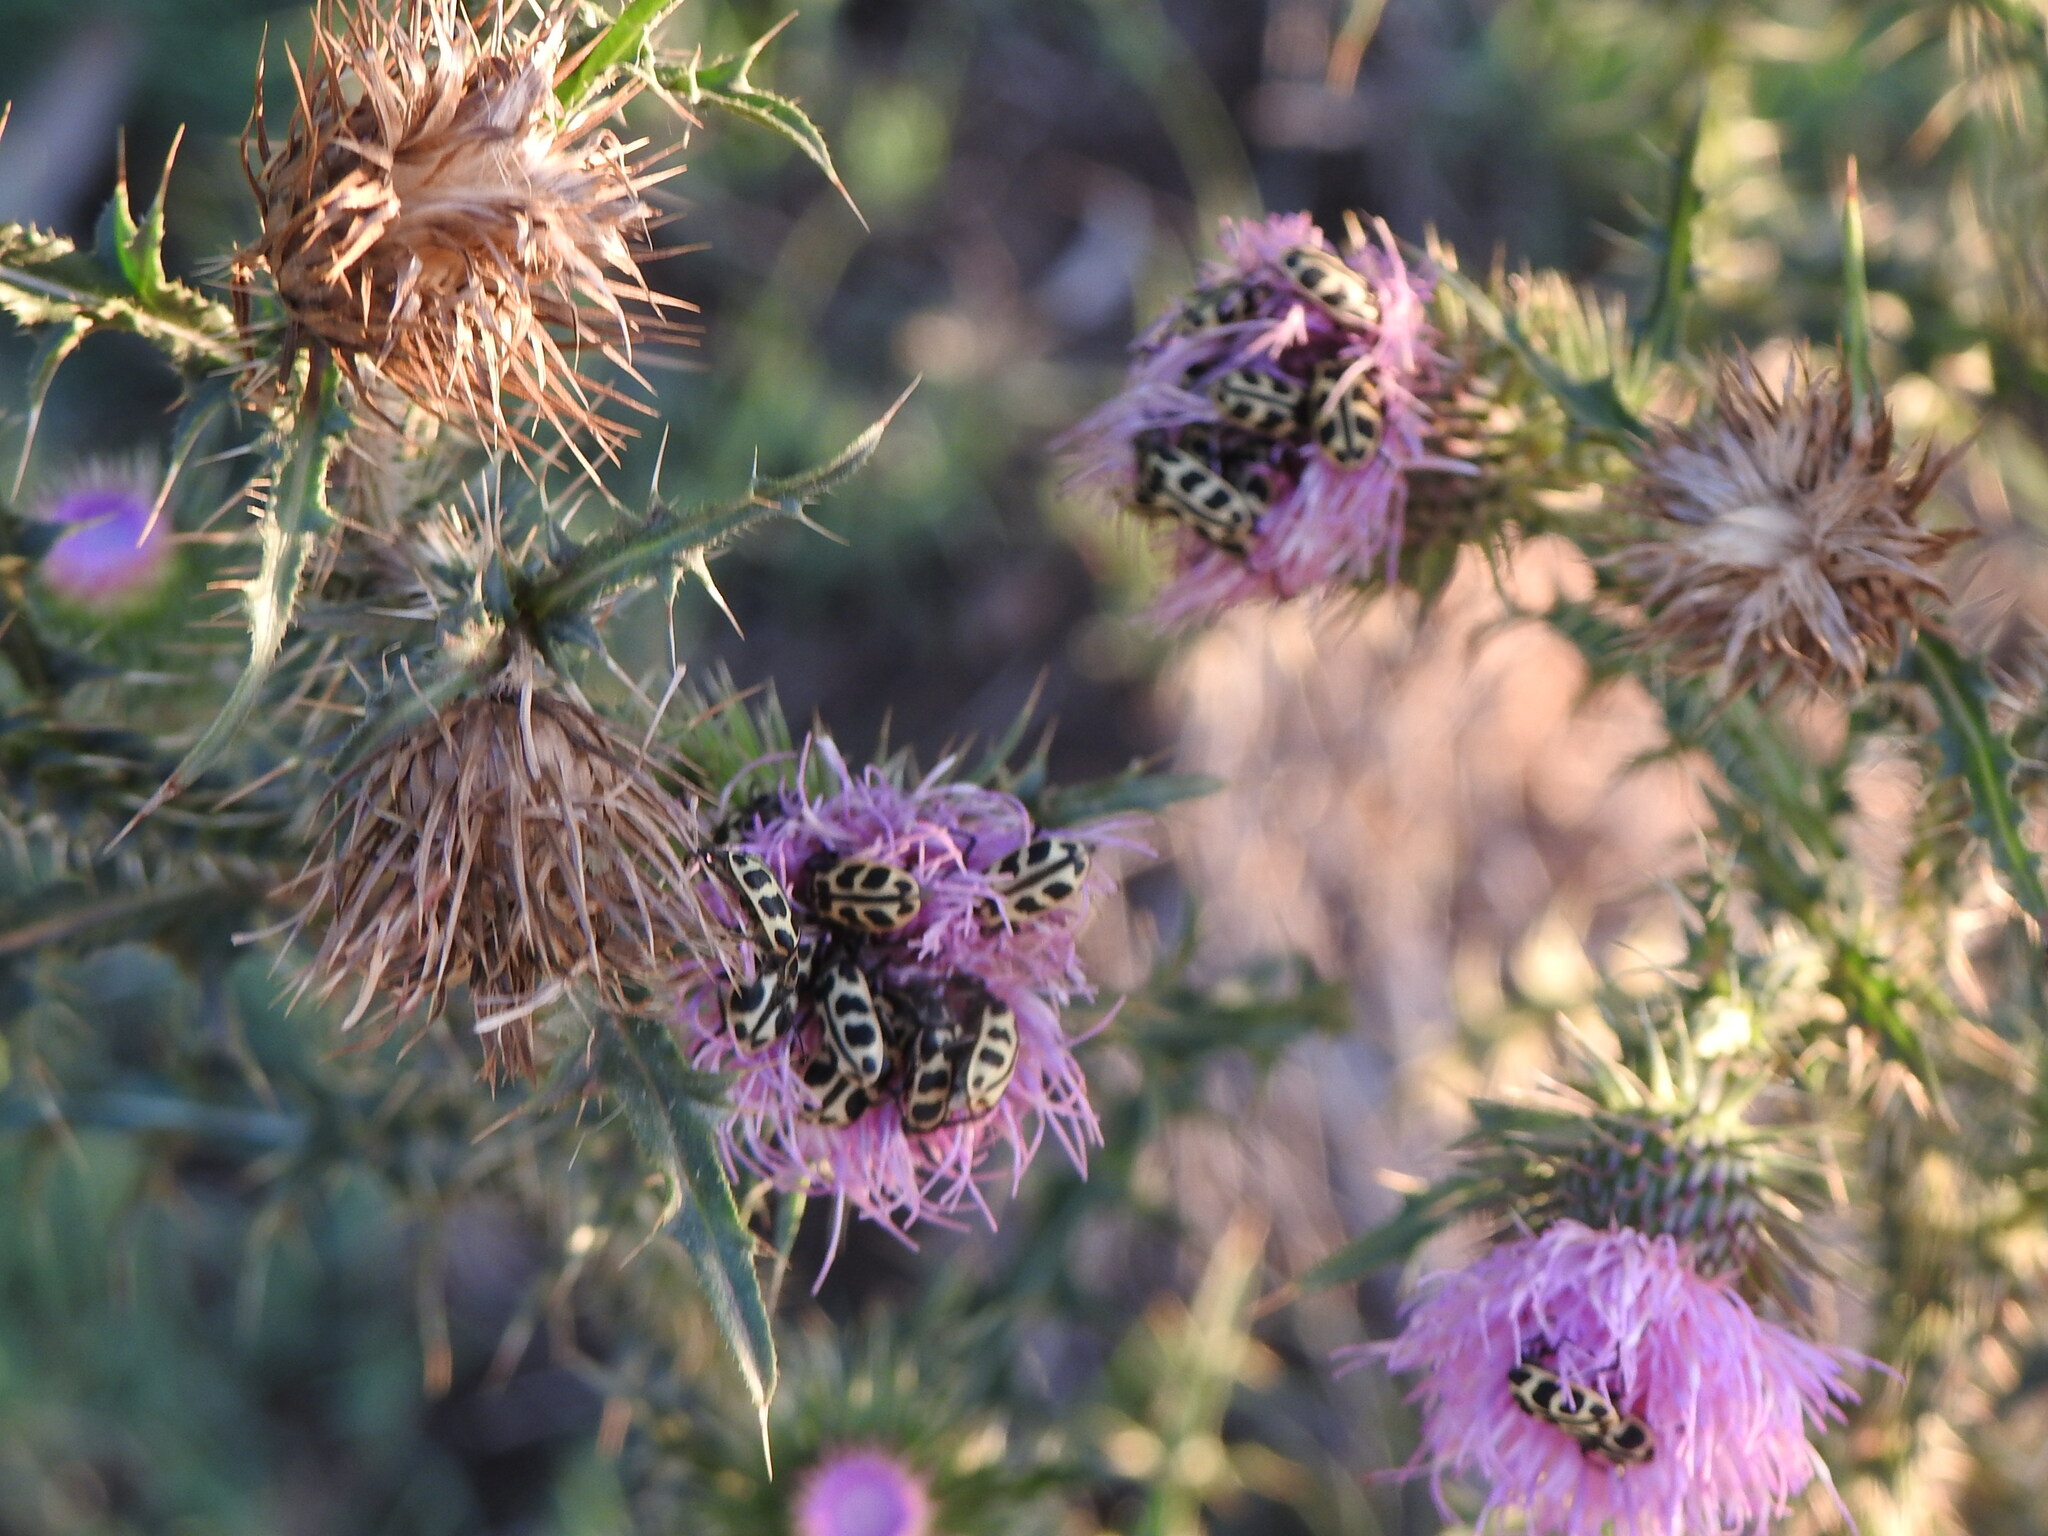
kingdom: Animalia
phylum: Arthropoda
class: Insecta
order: Coleoptera
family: Melyridae
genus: Astylus
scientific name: Astylus atromaculatus
